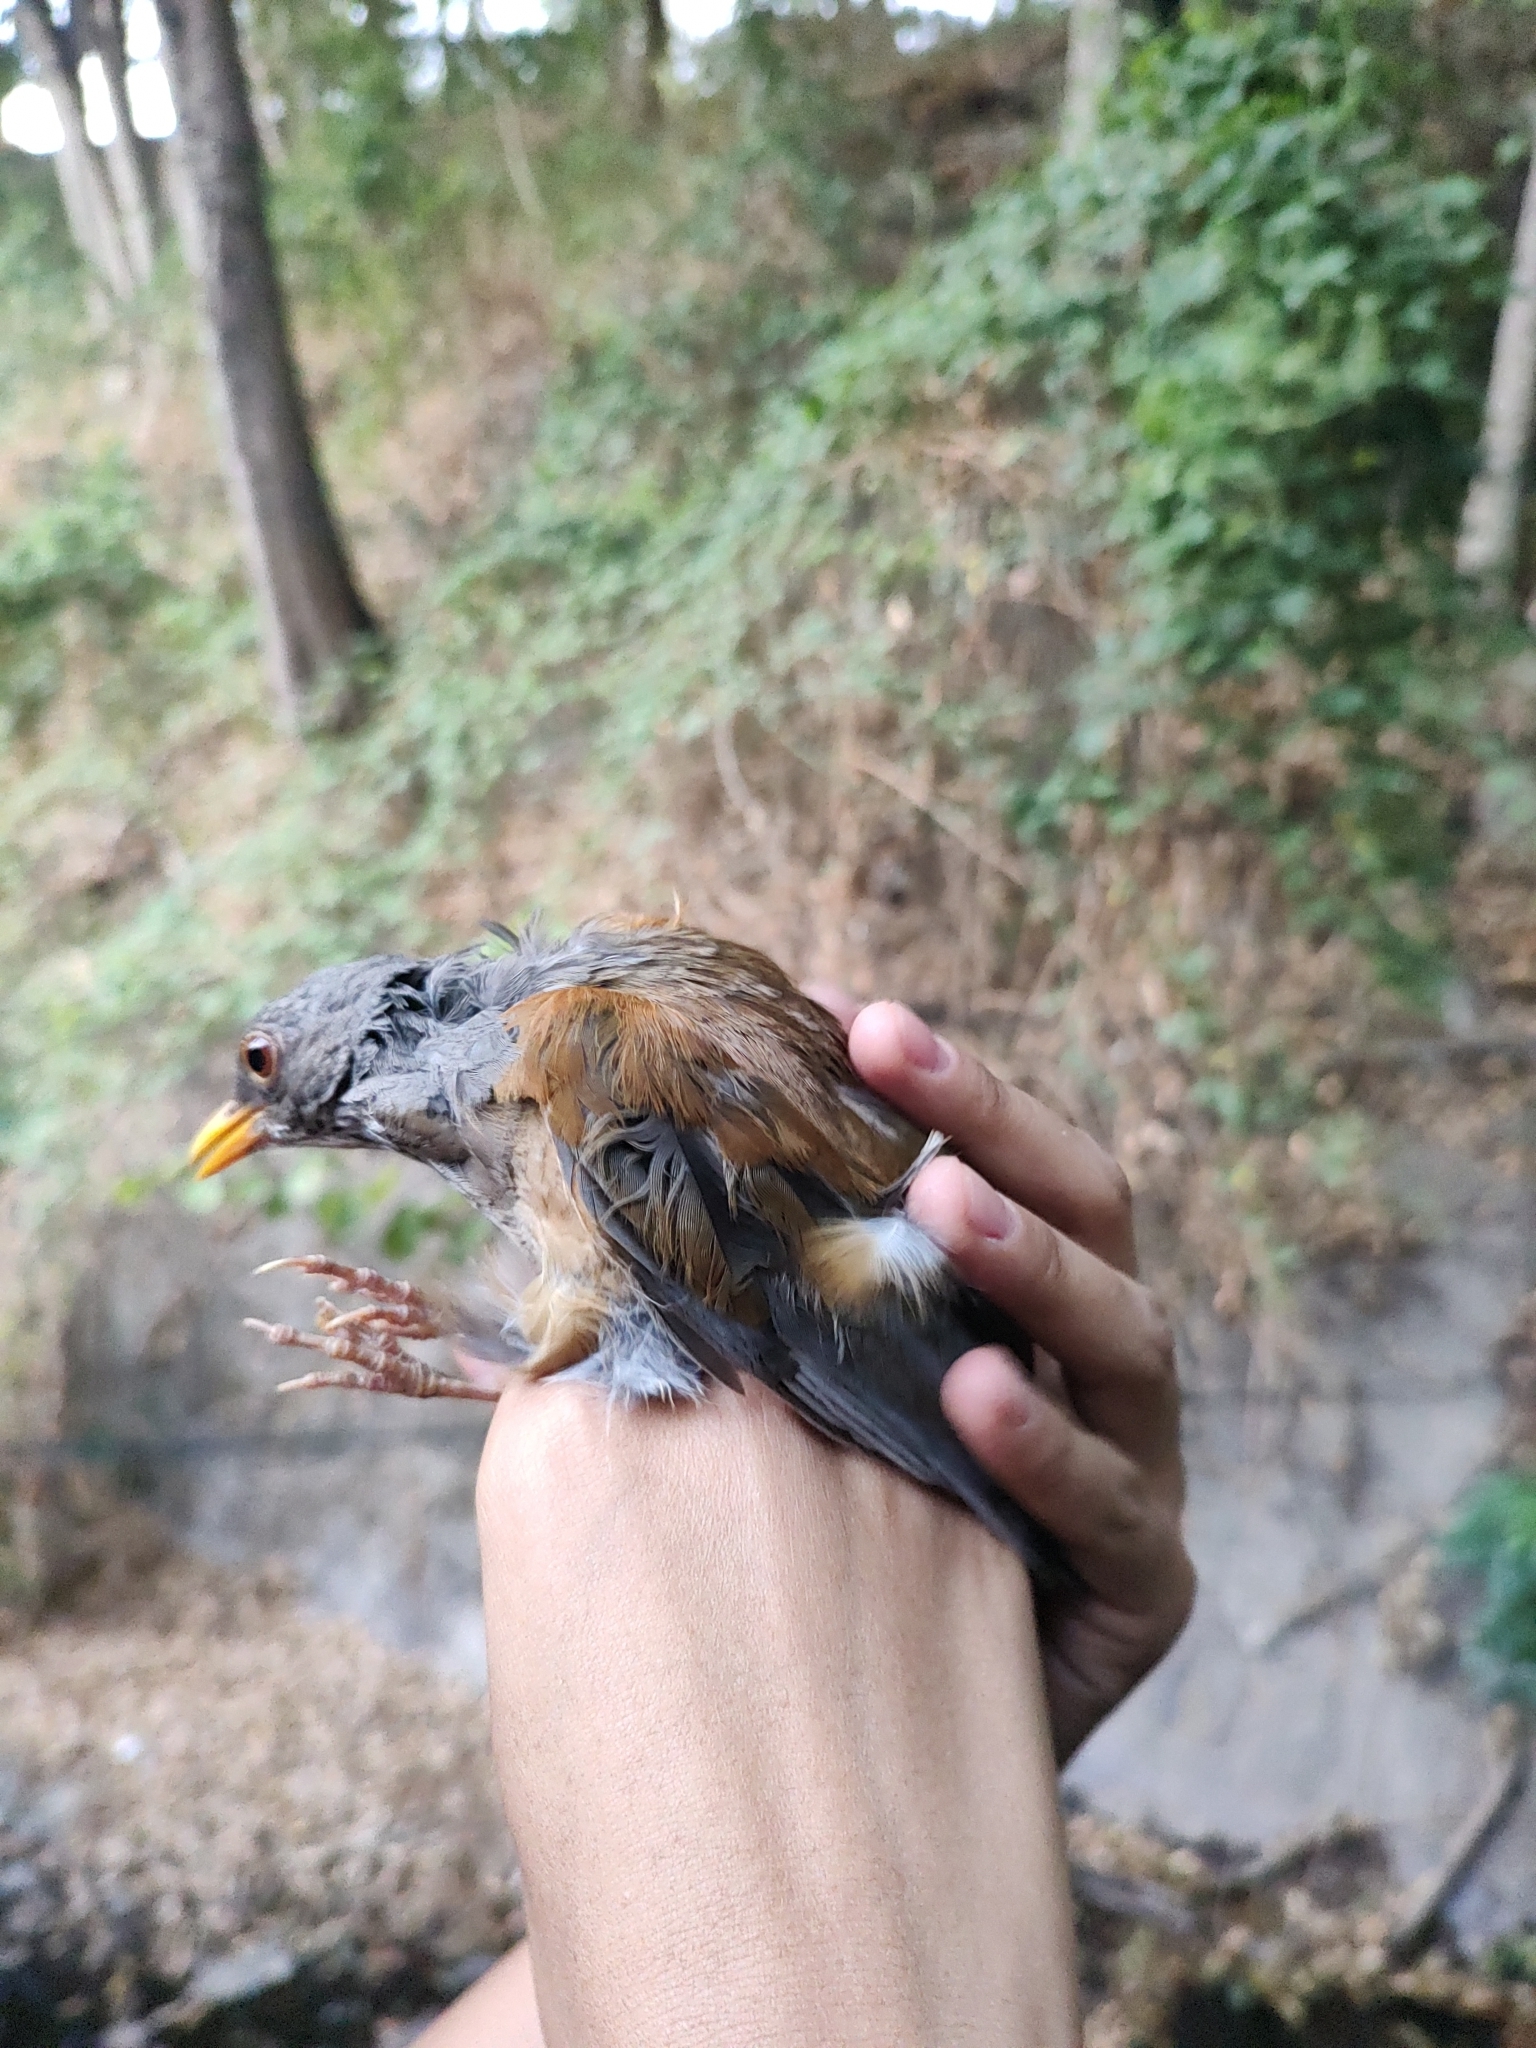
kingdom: Animalia
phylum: Chordata
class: Aves
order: Passeriformes
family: Turdidae
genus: Turdus
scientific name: Turdus rufopalliatus
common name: Rufous-backed robin
